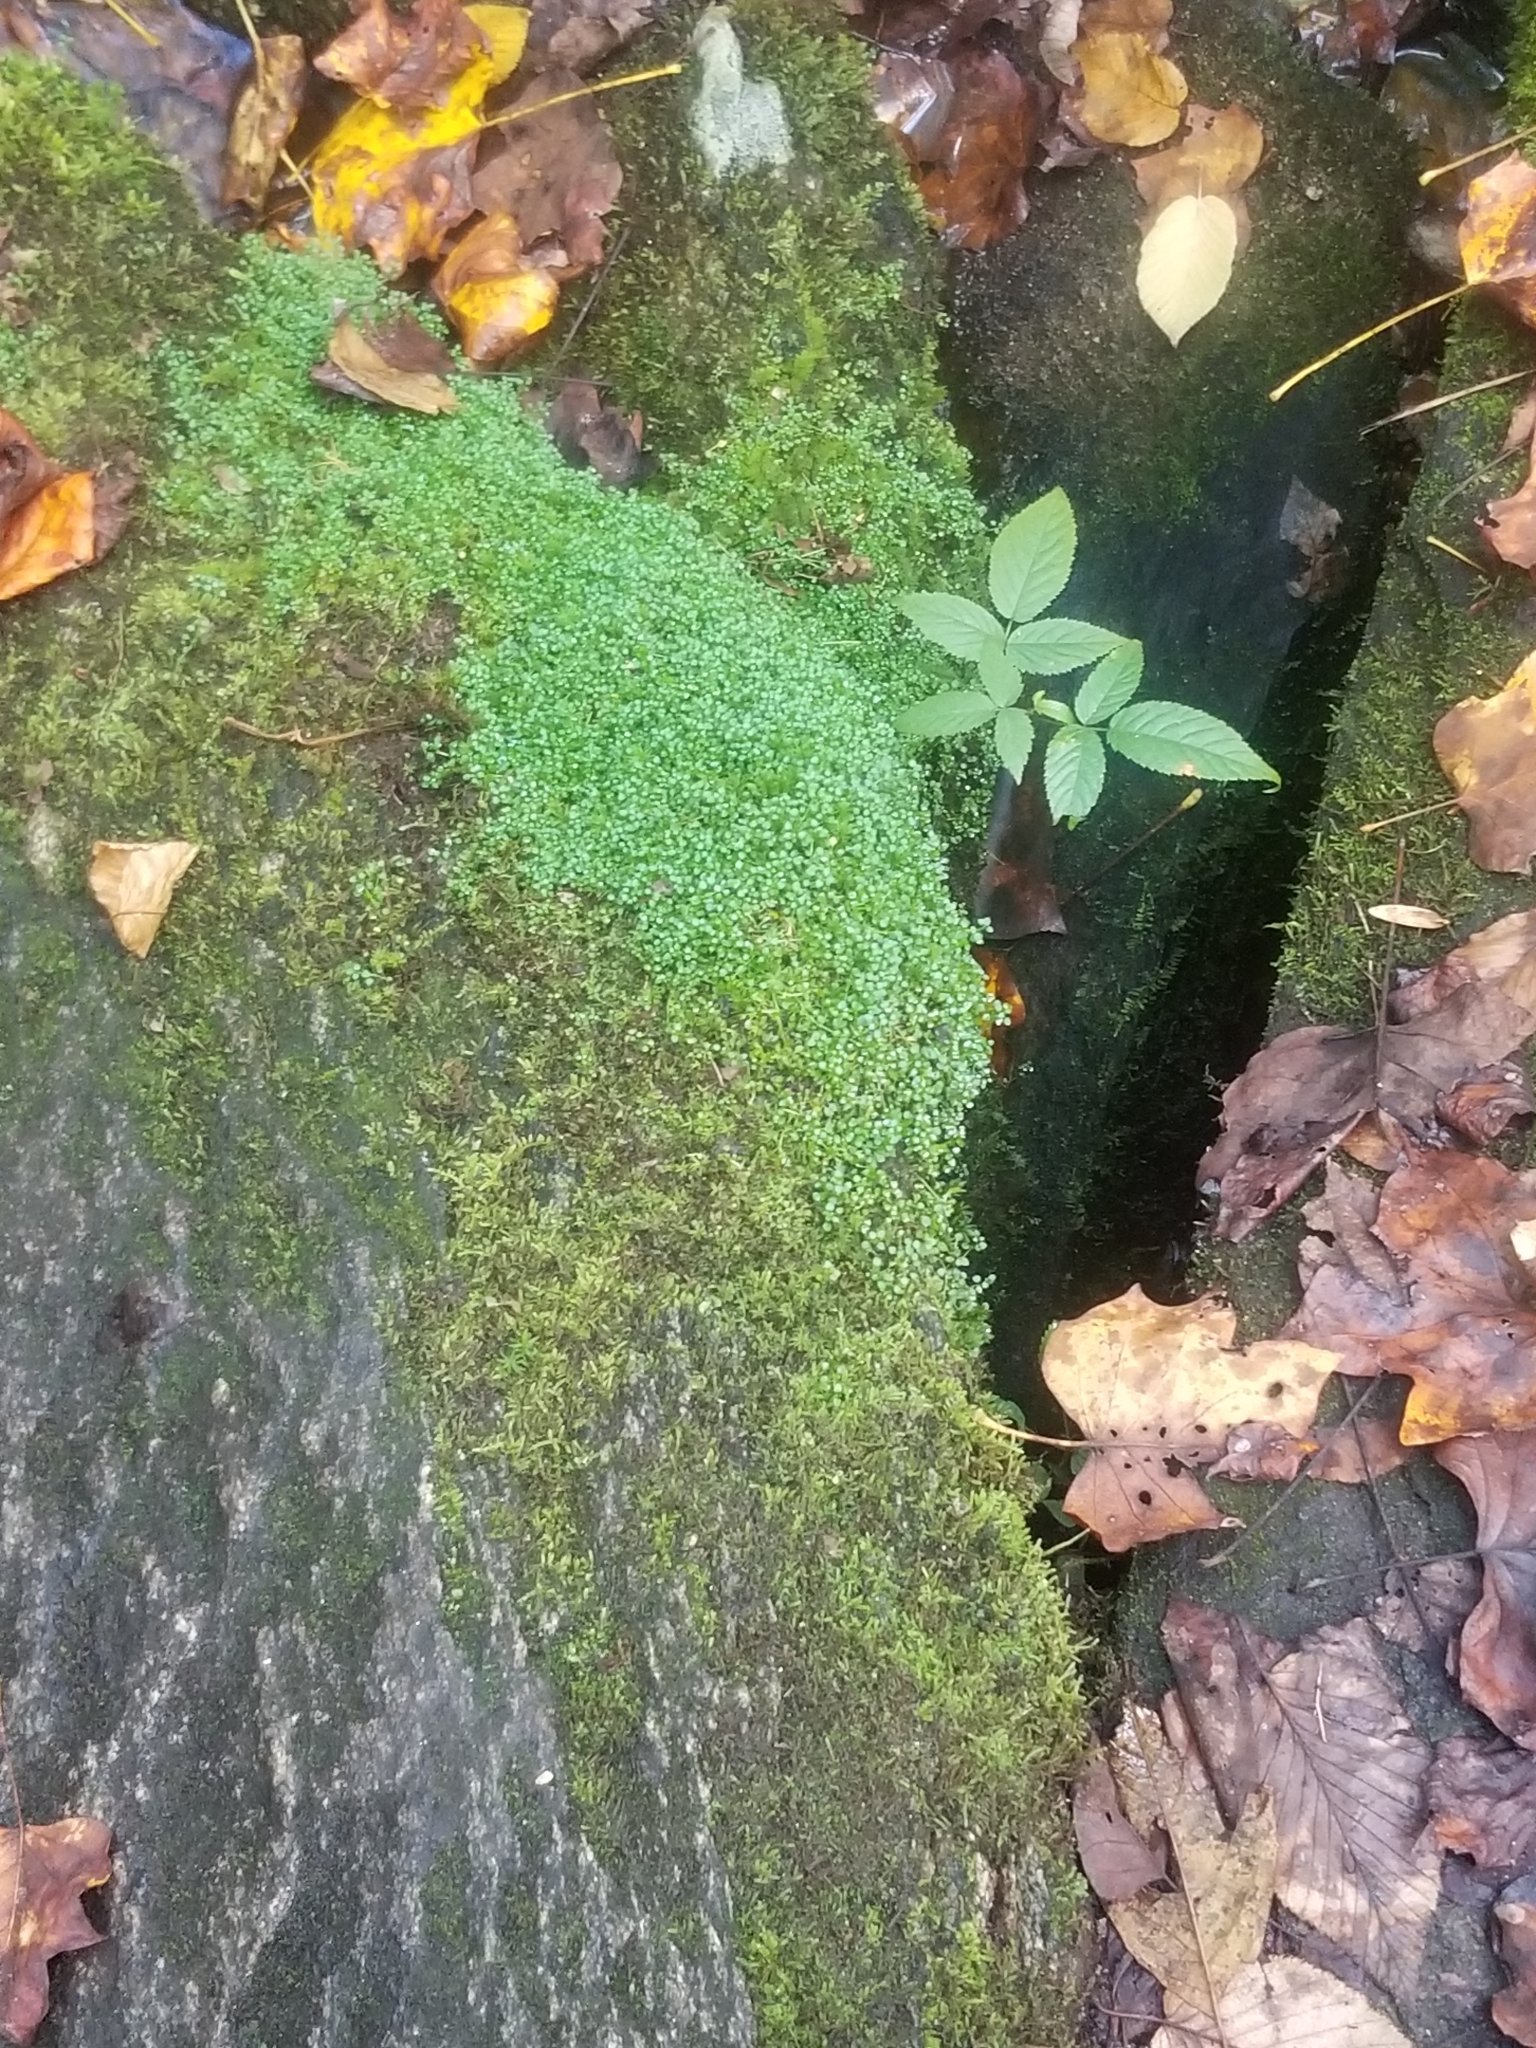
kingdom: Plantae
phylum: Tracheophyta
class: Magnoliopsida
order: Gentianales
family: Rubiaceae
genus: Houstonia
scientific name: Houstonia serpyllifolia
